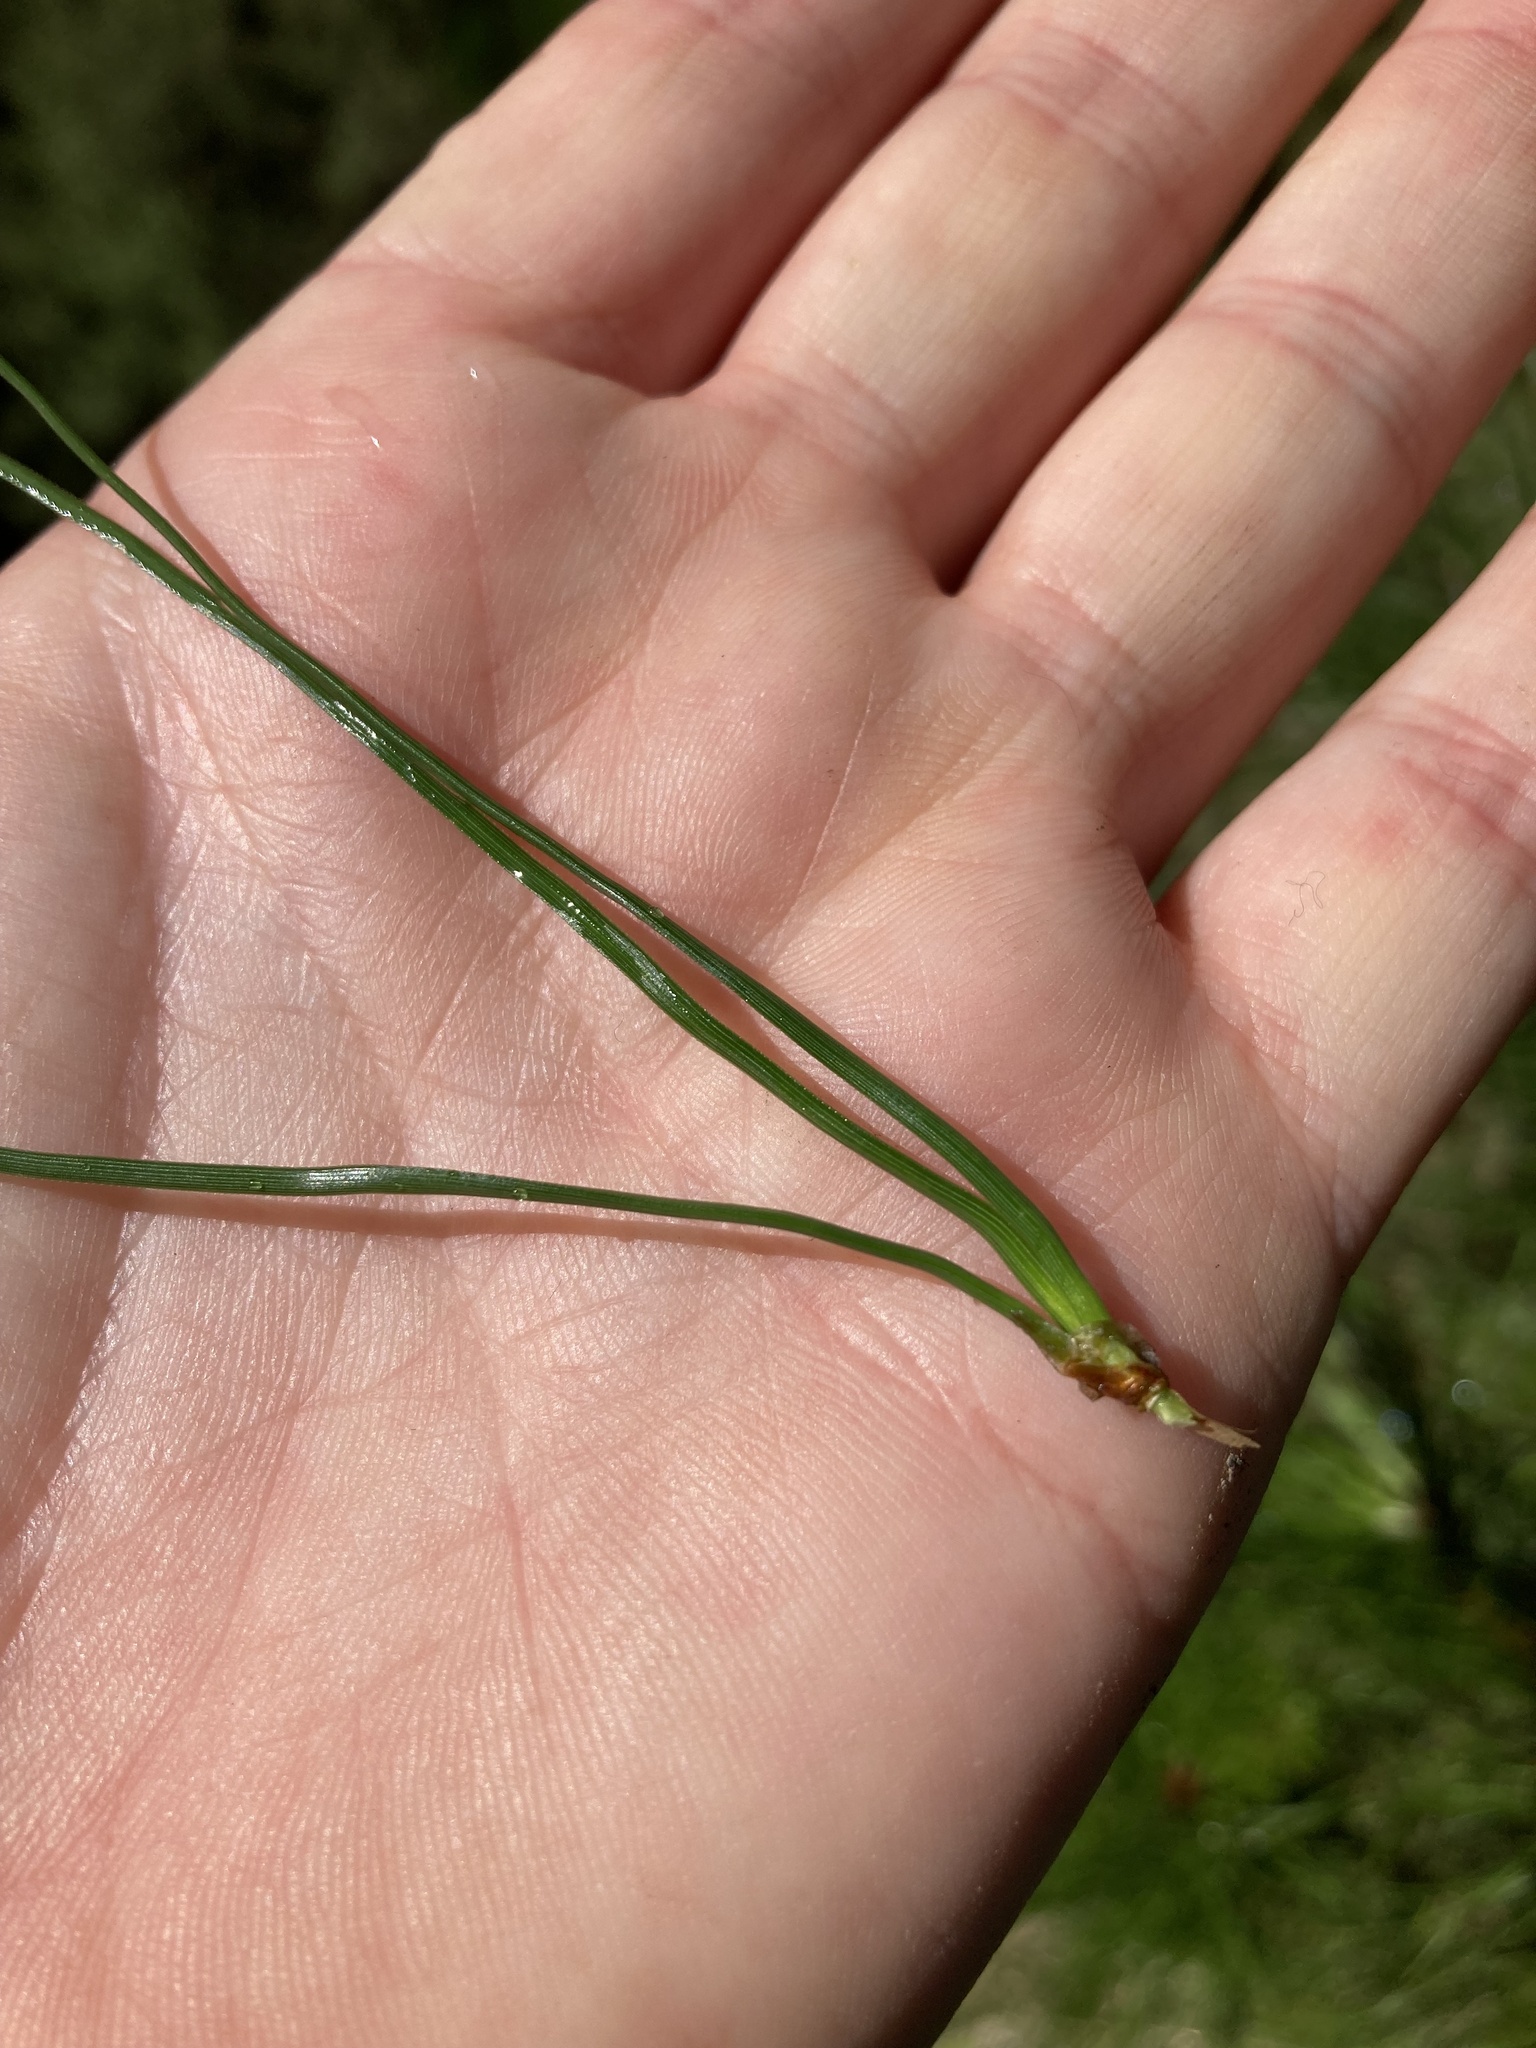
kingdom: Plantae
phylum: Tracheophyta
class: Pinopsida
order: Pinales
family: Pinaceae
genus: Pinus
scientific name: Pinus radiata
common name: Monterey pine
